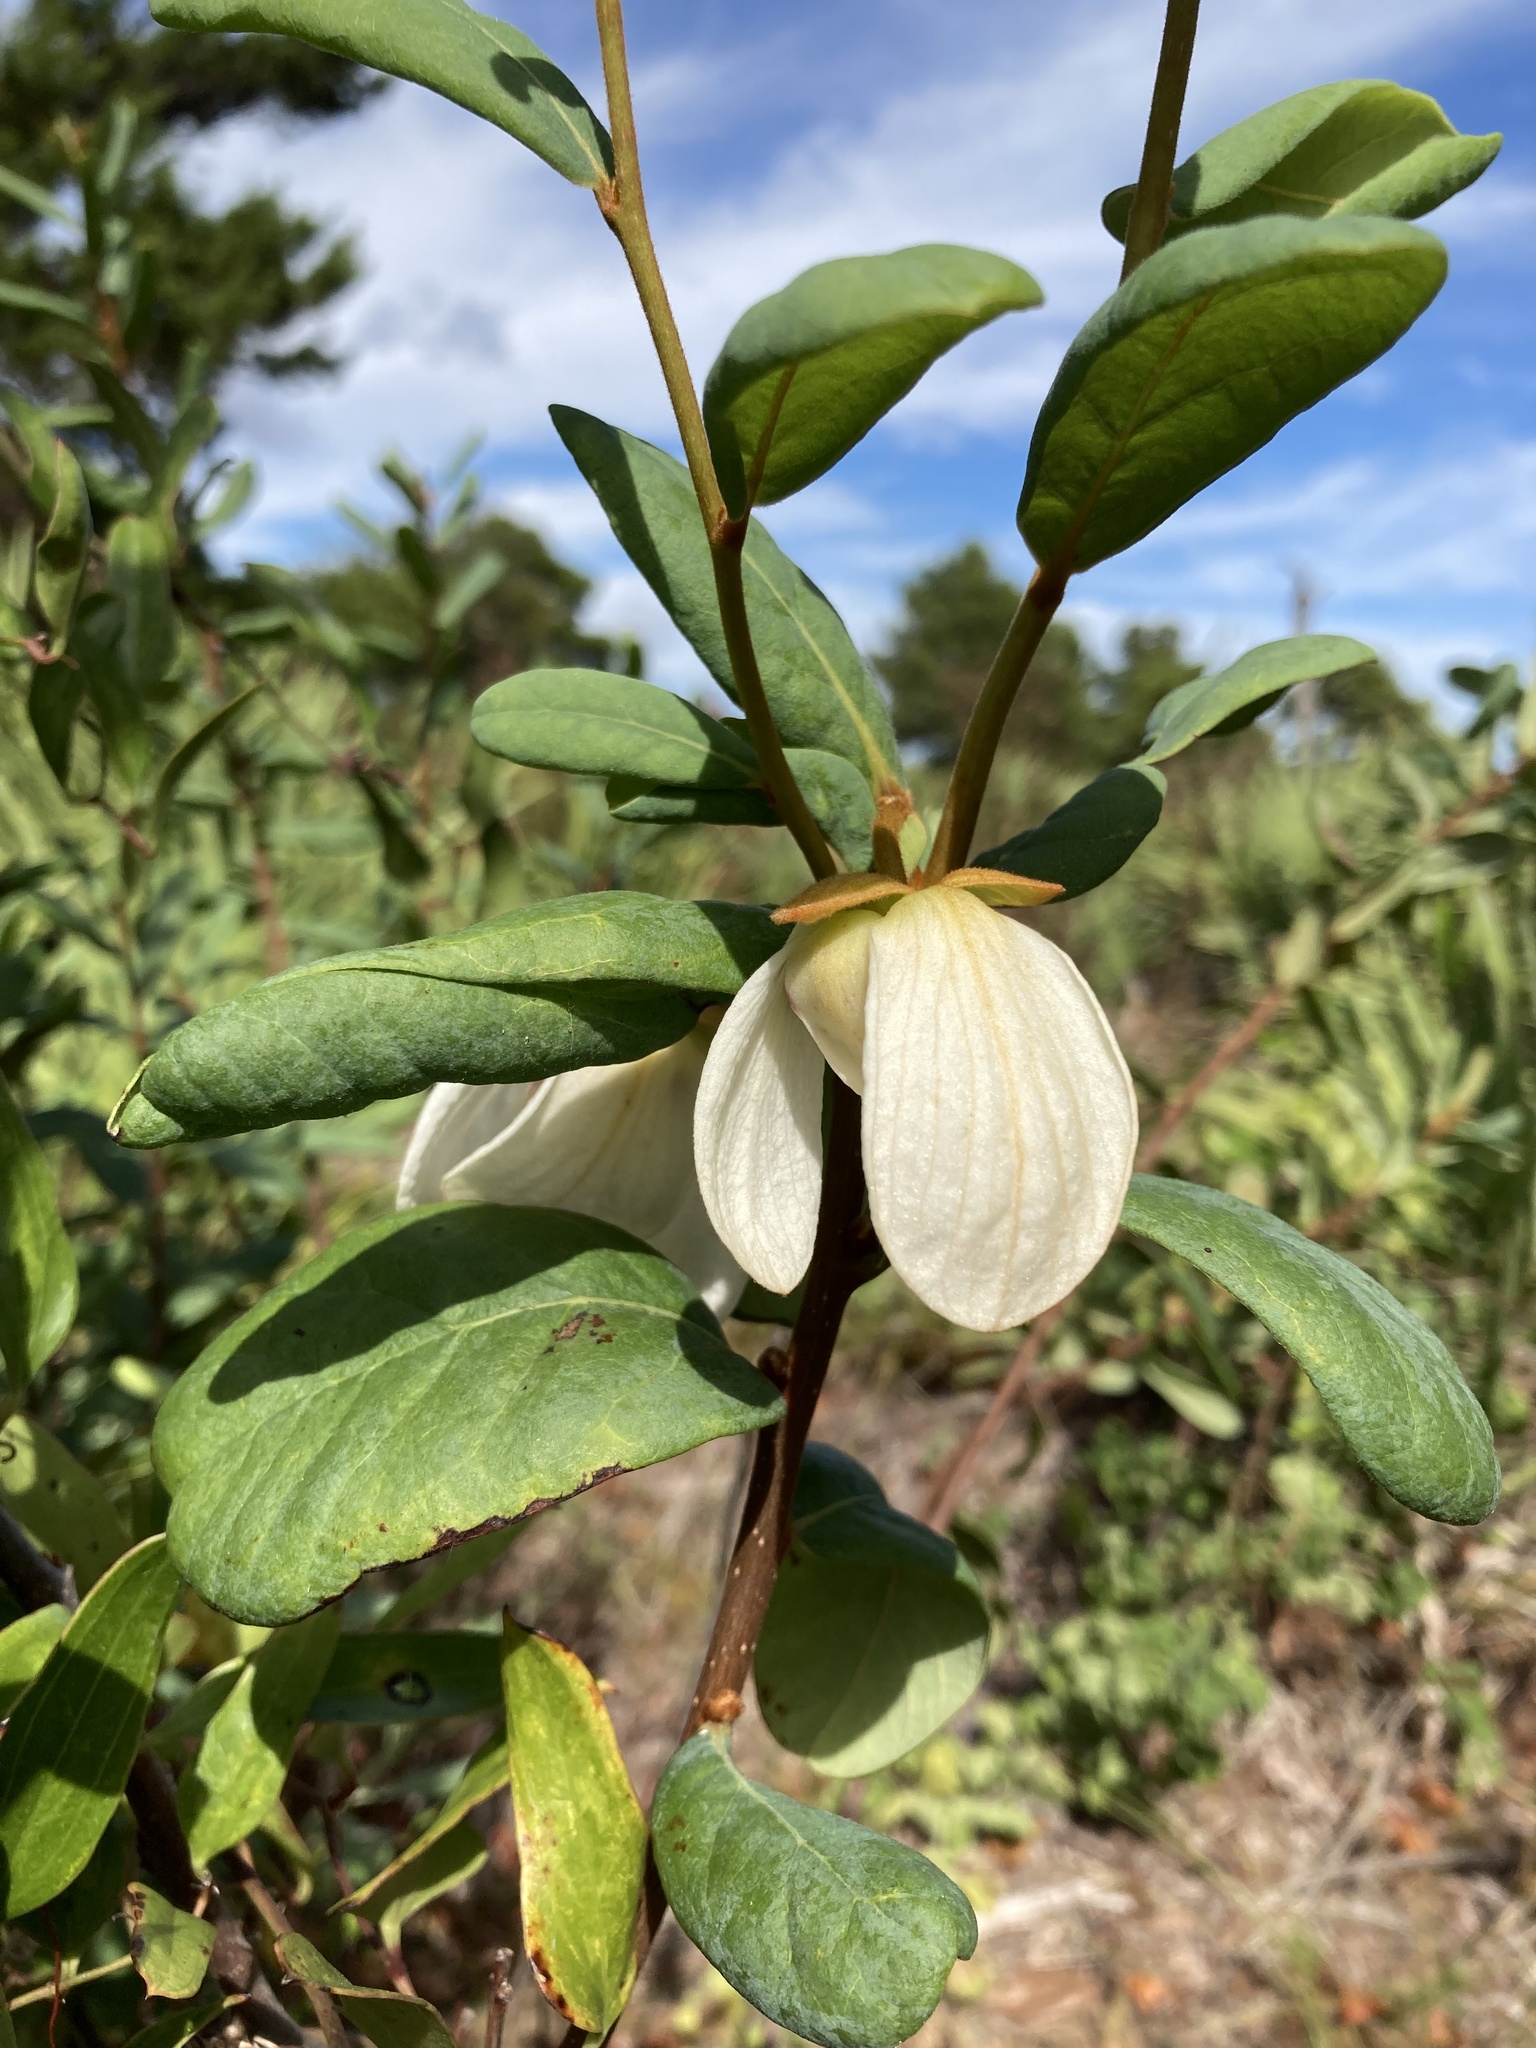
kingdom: Plantae
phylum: Tracheophyta
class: Magnoliopsida
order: Magnoliales
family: Annonaceae
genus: Asimina
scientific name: Asimina reticulata
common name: Flag pawpaw
